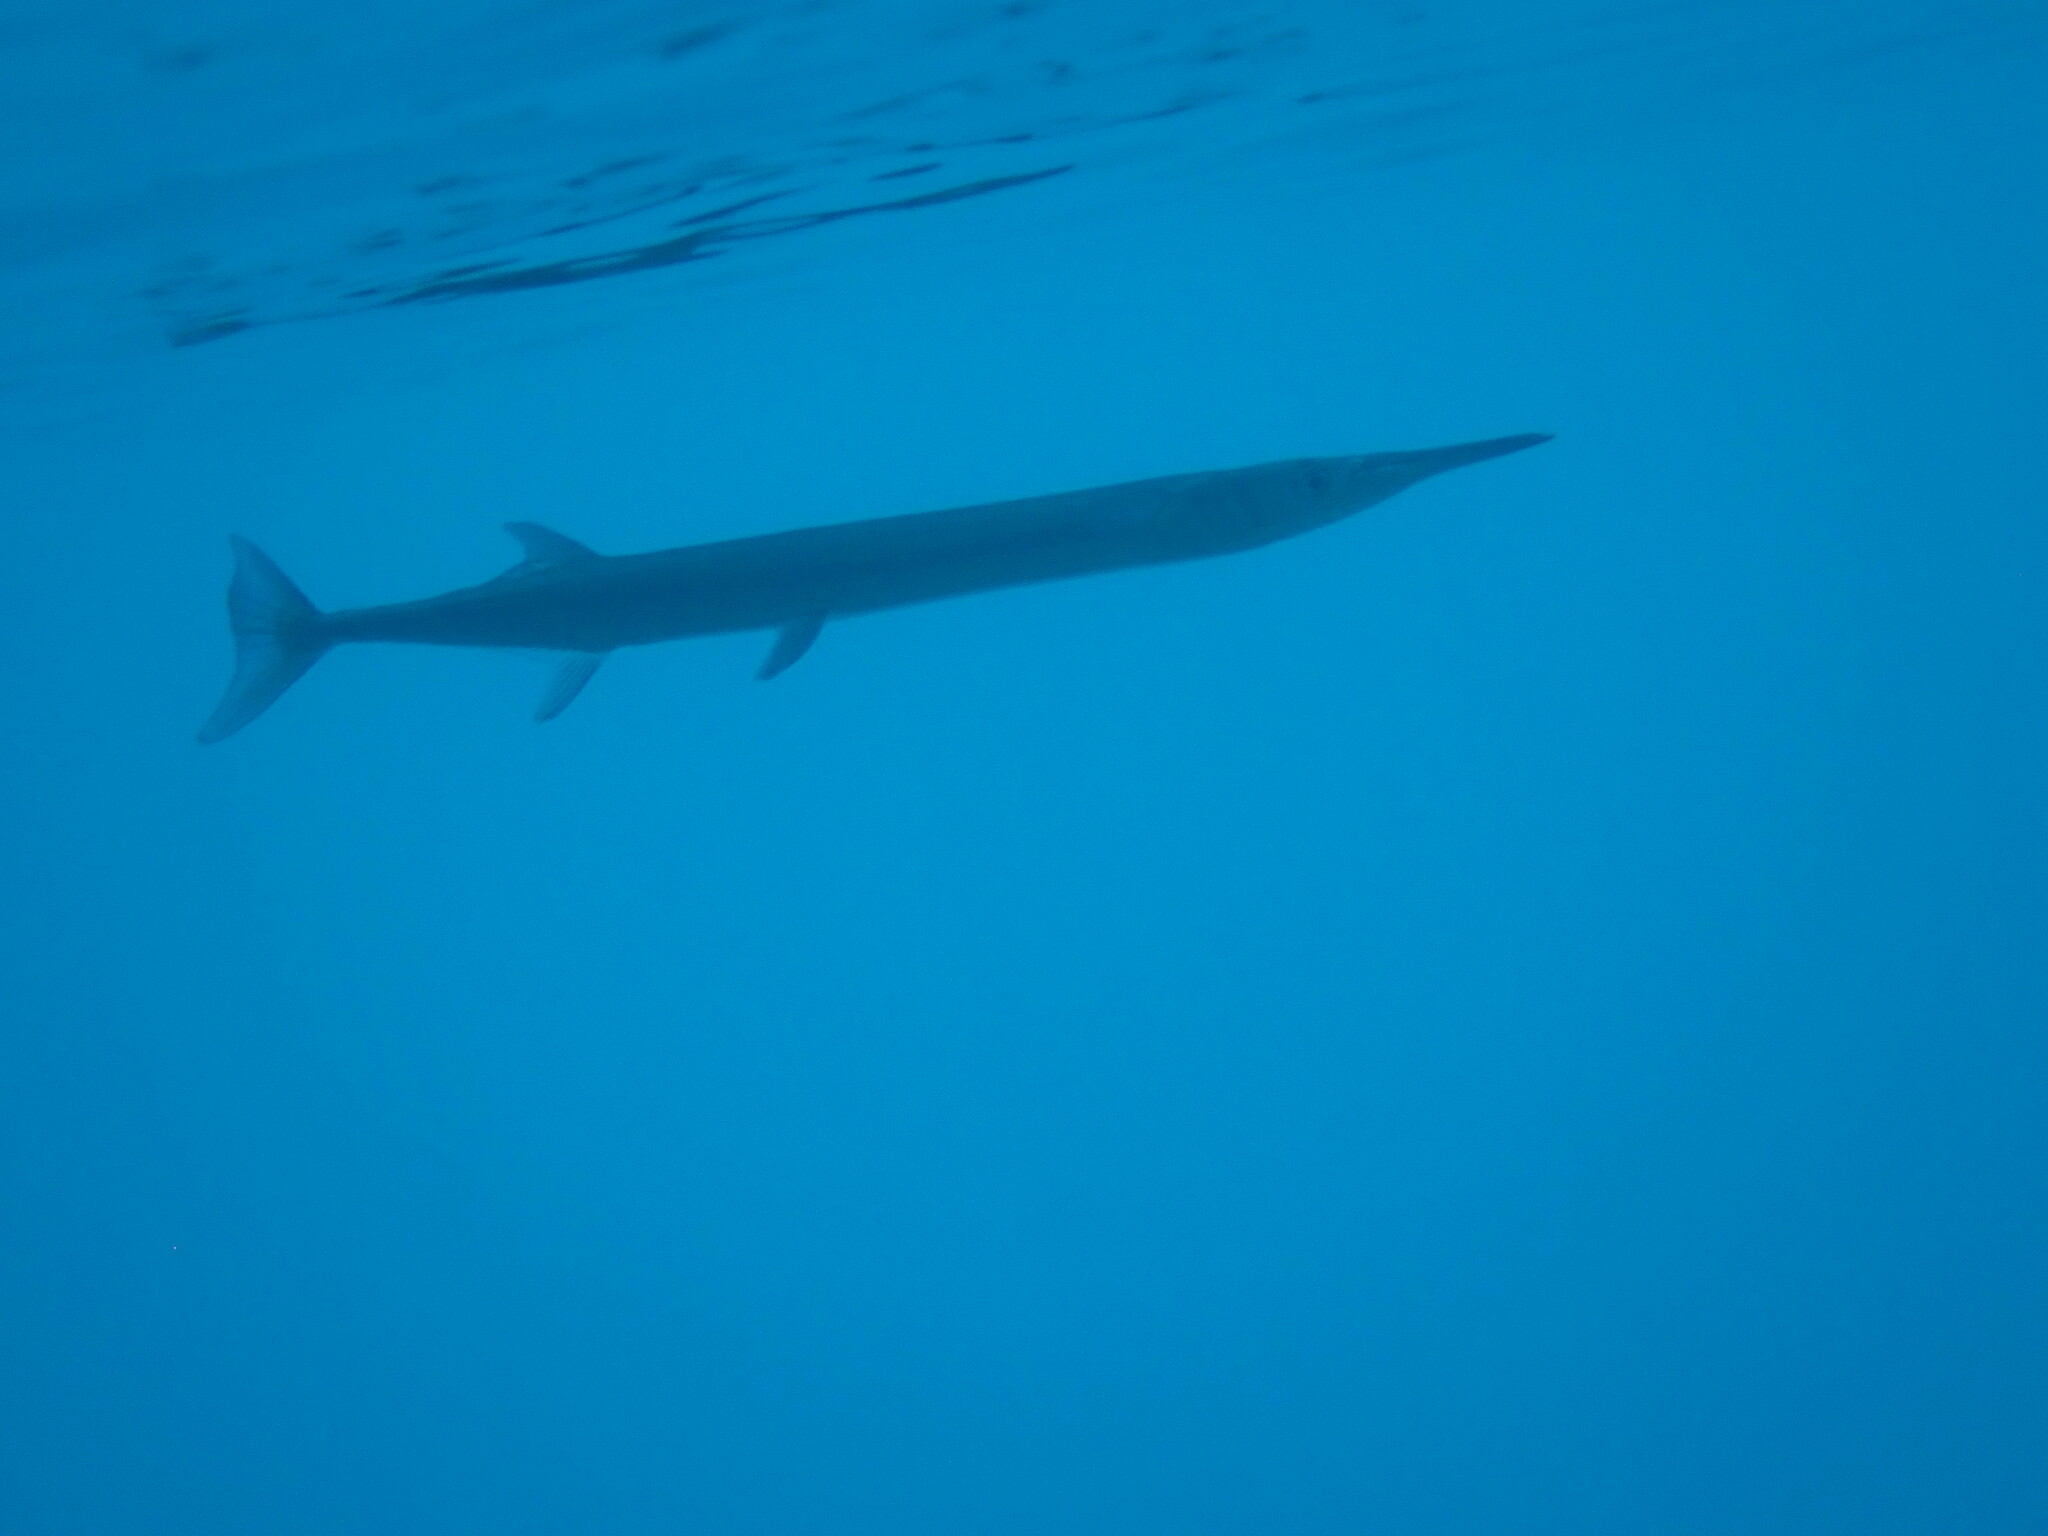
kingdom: Animalia
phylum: Chordata
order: Beloniformes
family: Belonidae
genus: Tylosurus
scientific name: Tylosurus crocodilus
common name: Houndfish
